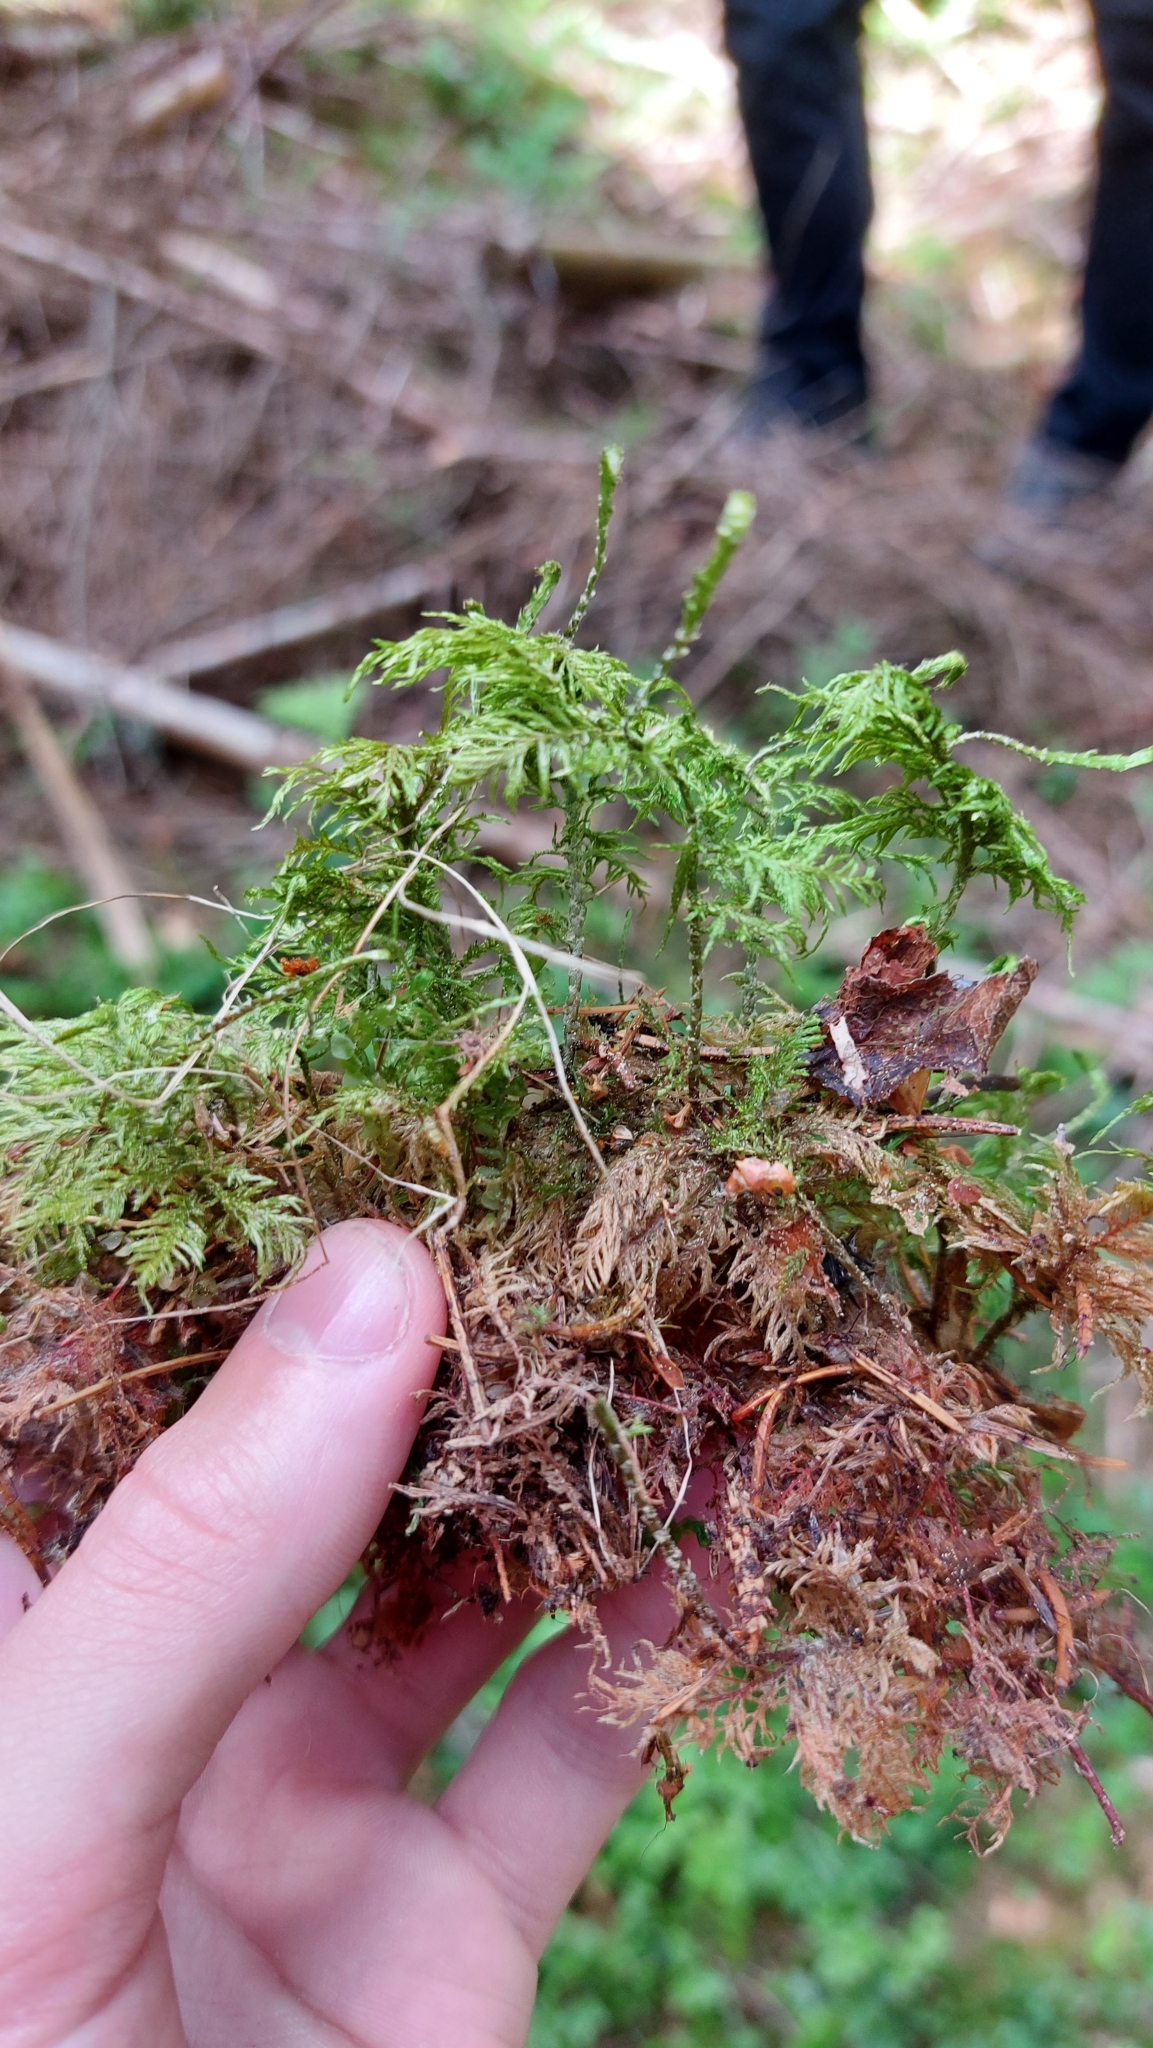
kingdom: Plantae
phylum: Bryophyta
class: Bryopsida
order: Hypnales
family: Hylocomiaceae
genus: Hylocomium
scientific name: Hylocomium splendens
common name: Stairstep moss
